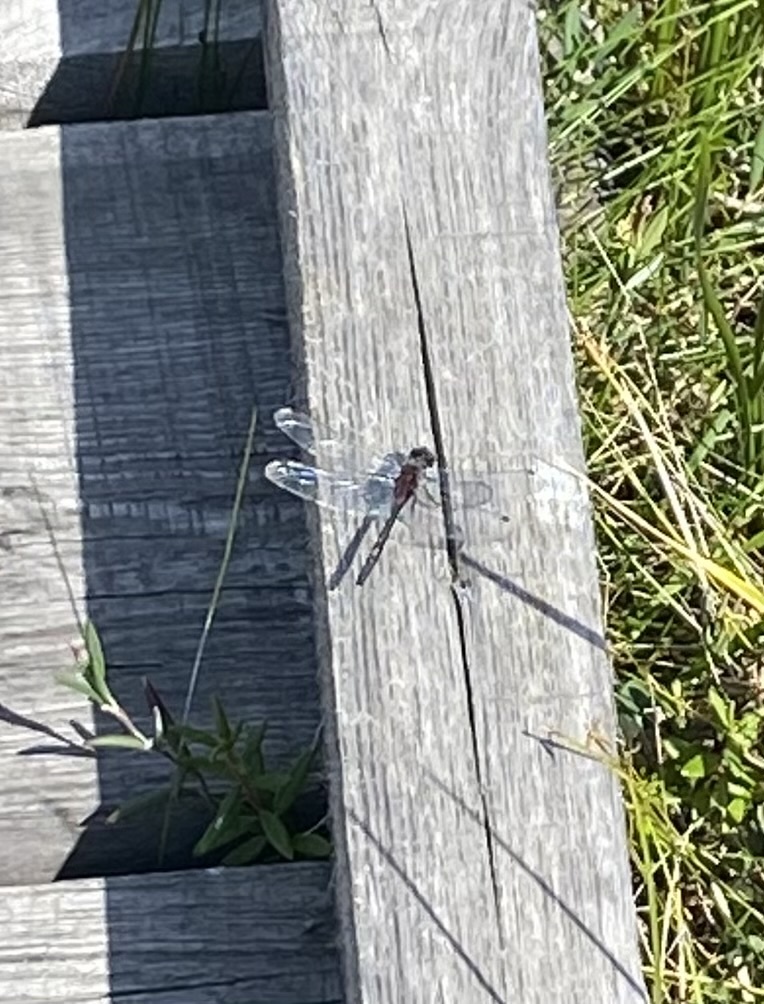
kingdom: Animalia
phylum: Arthropoda
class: Insecta
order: Odonata
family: Libellulidae
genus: Leucorrhinia
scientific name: Leucorrhinia orientalis
